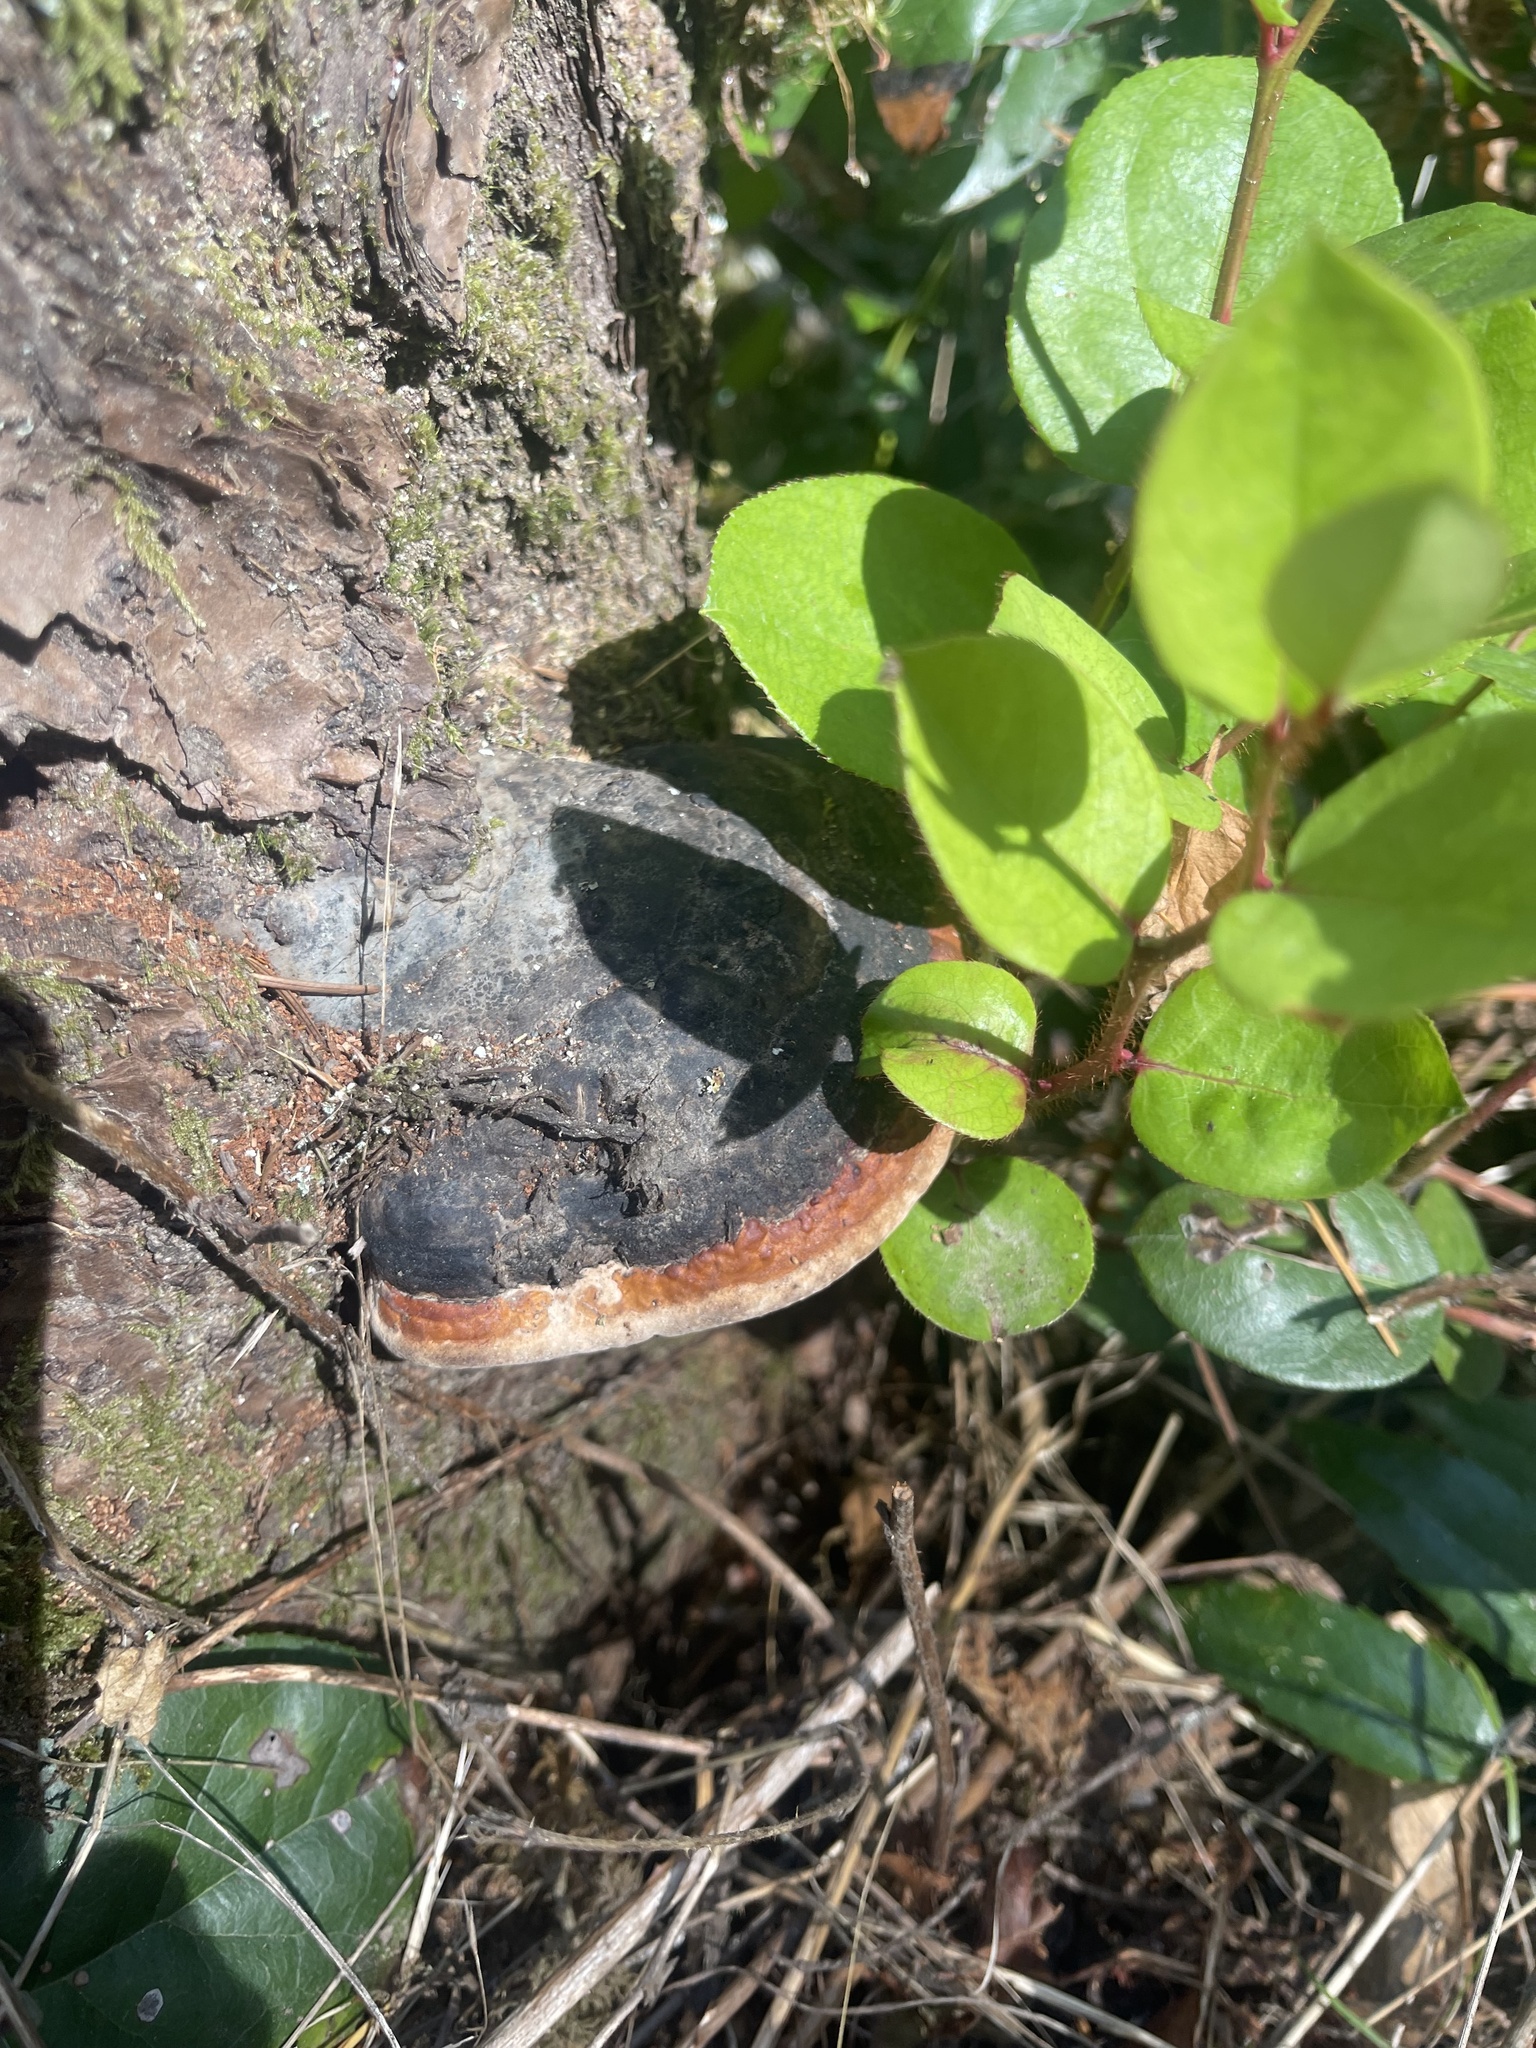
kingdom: Fungi
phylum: Basidiomycota
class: Agaricomycetes
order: Polyporales
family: Fomitopsidaceae
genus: Fomitopsis
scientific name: Fomitopsis mounceae
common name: Northern red belt
